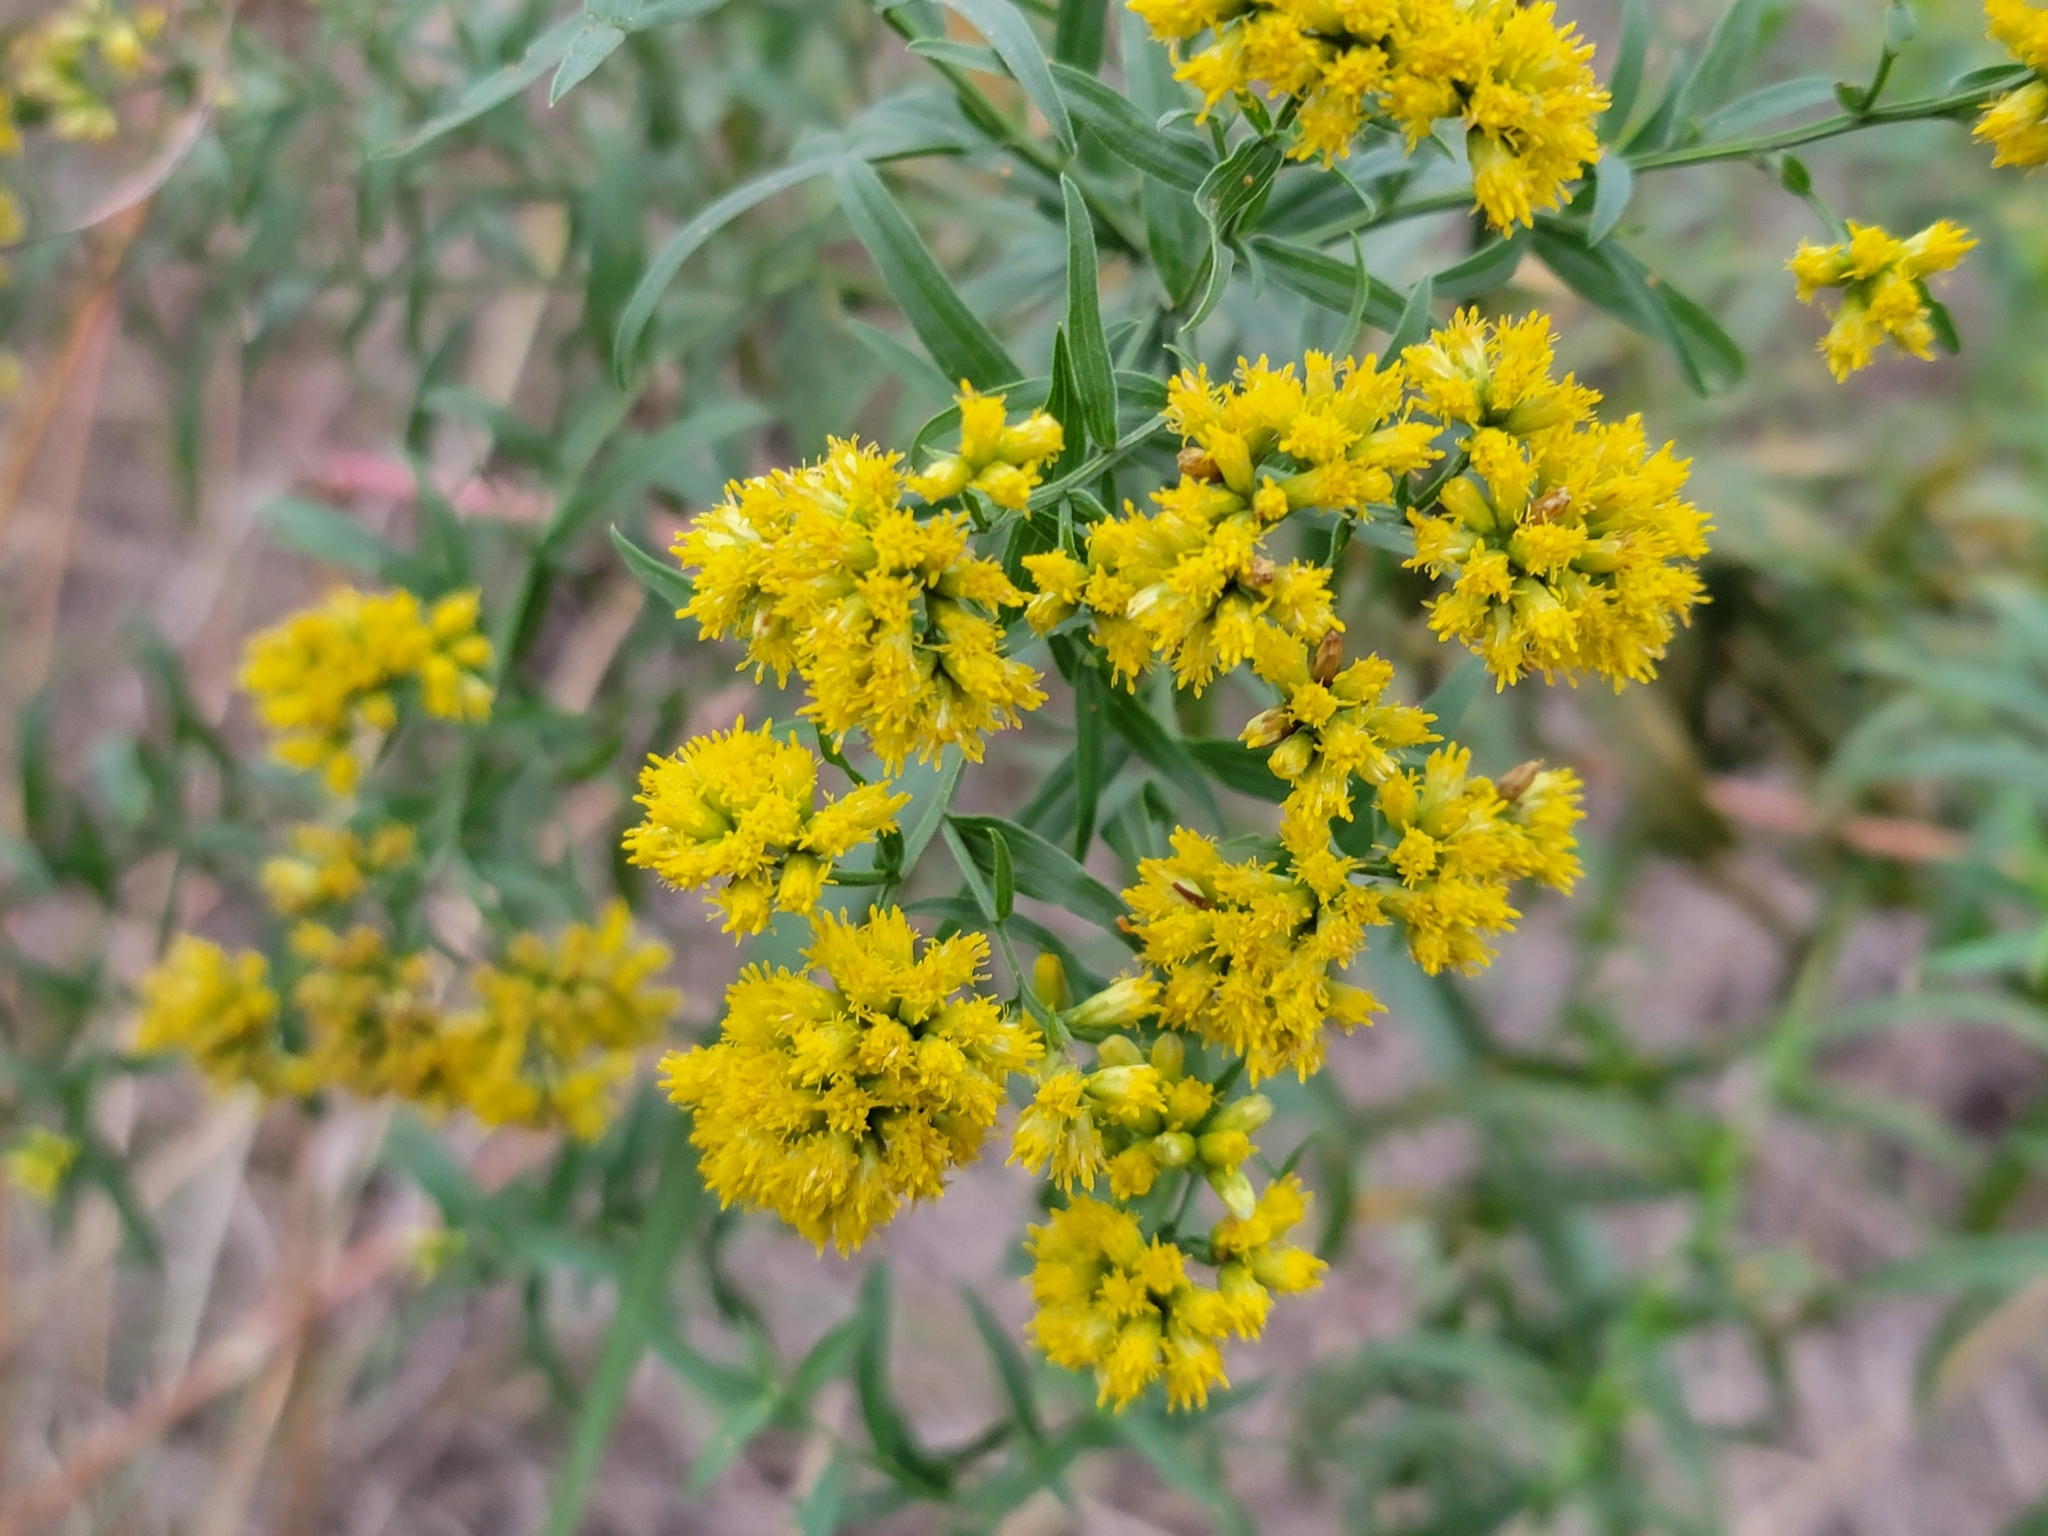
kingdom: Plantae
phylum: Tracheophyta
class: Magnoliopsida
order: Asterales
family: Asteraceae
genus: Euthamia
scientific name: Euthamia graminifolia
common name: Common goldentop
